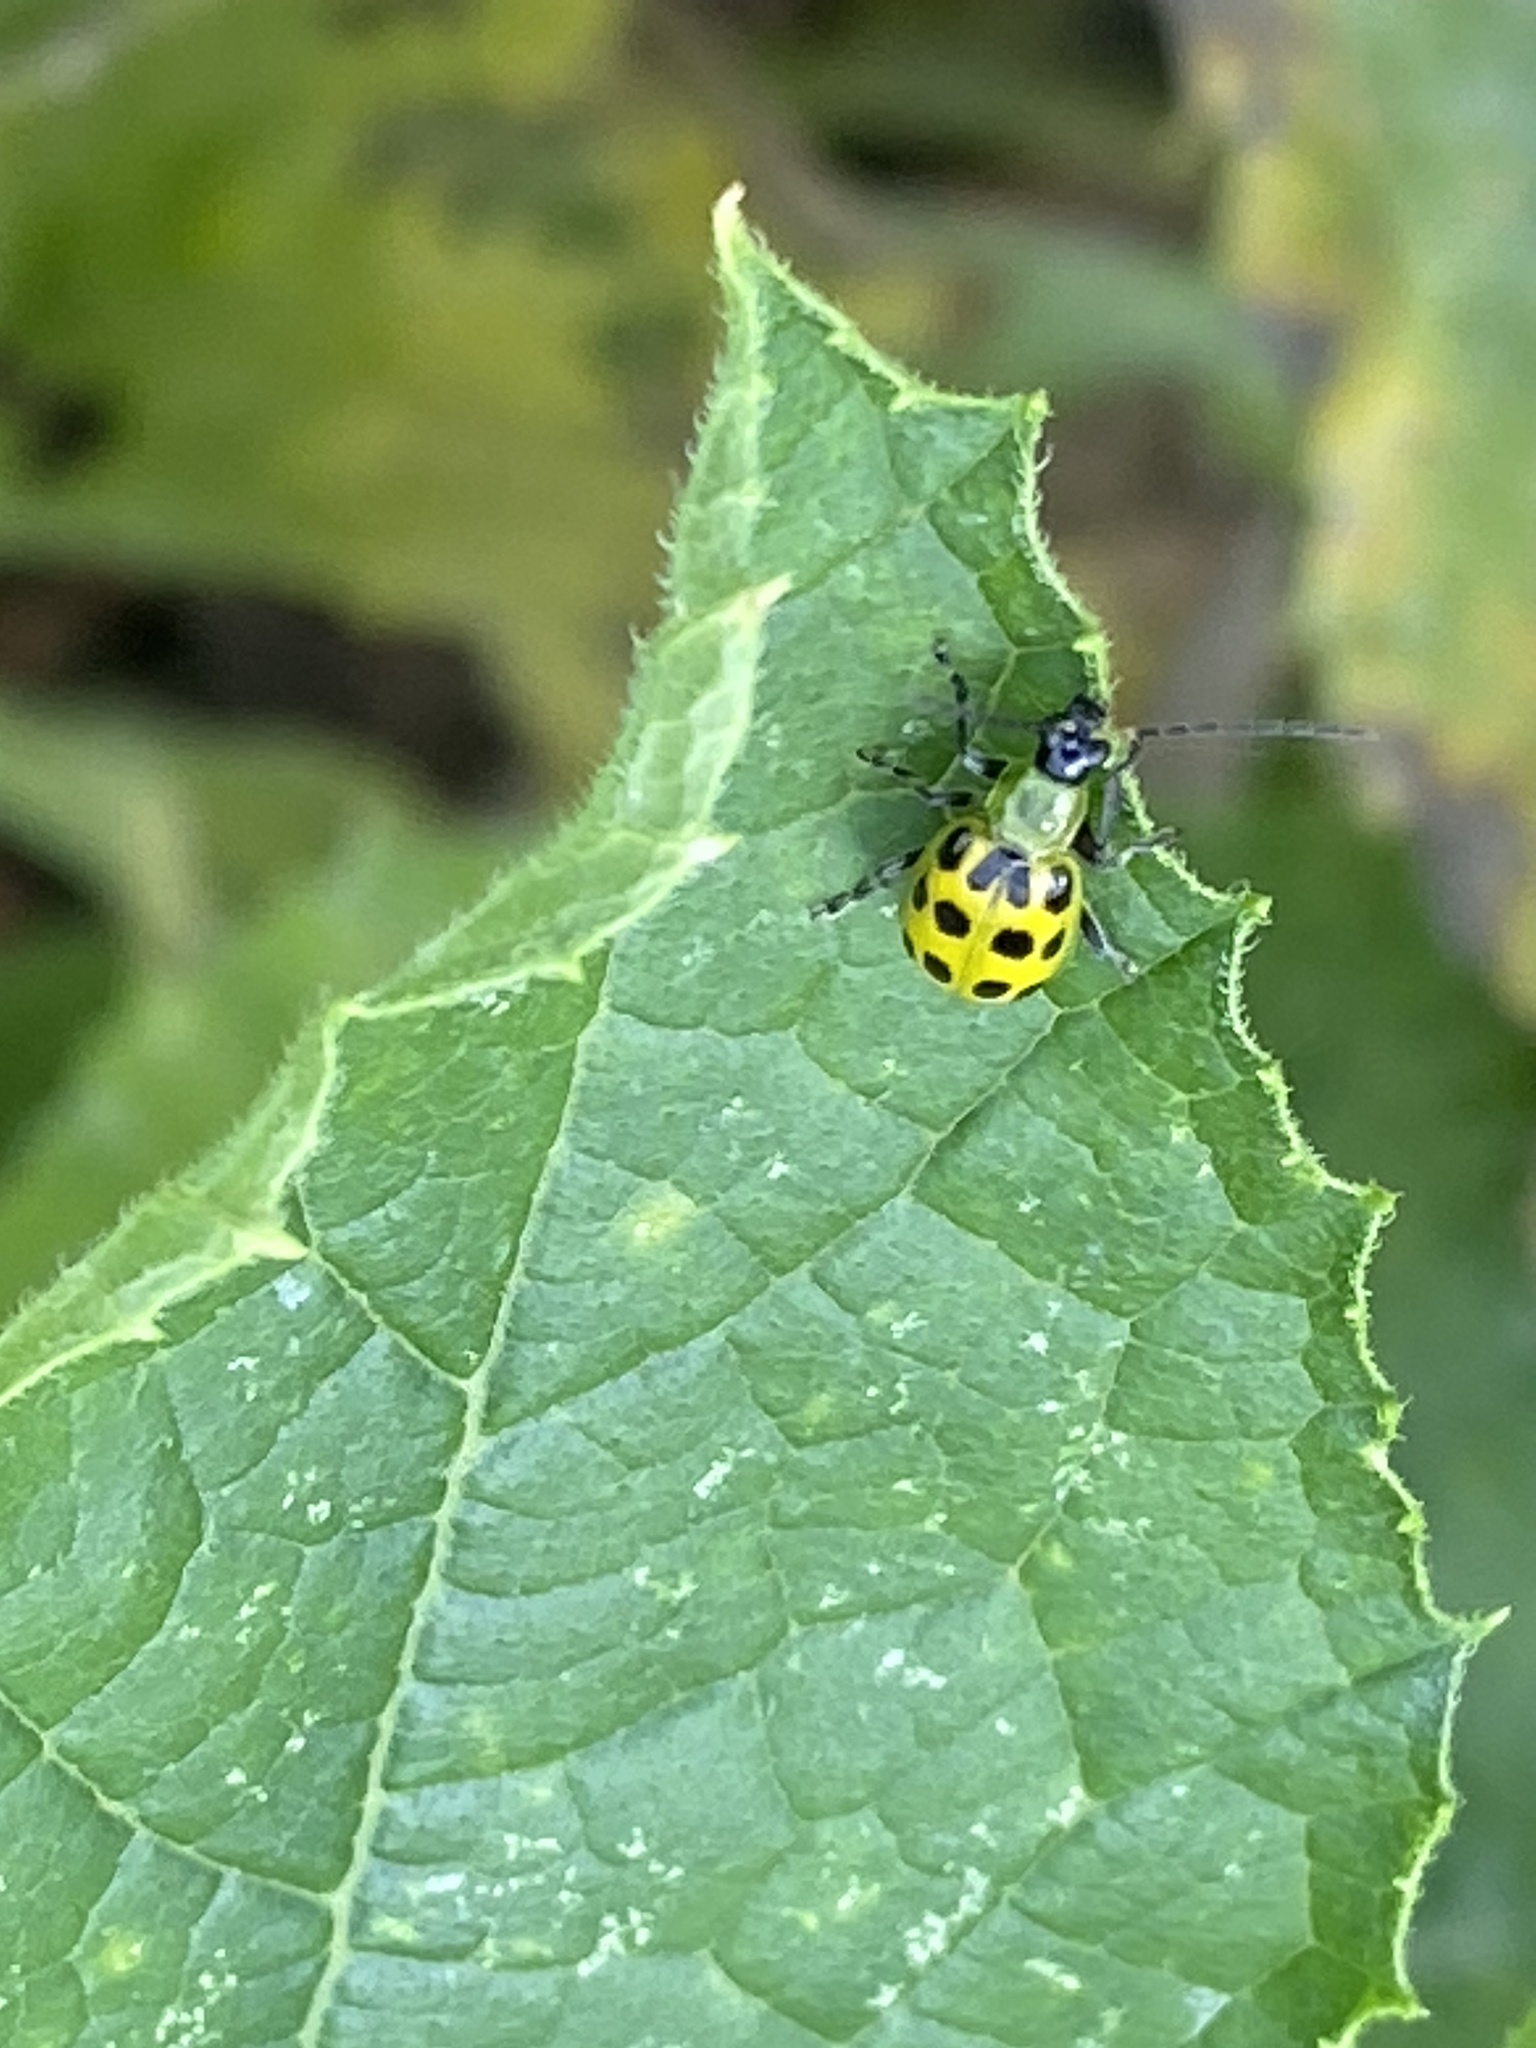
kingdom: Animalia
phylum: Arthropoda
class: Insecta
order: Coleoptera
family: Chrysomelidae
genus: Diabrotica
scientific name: Diabrotica undecimpunctata
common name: Spotted cucumber beetle
